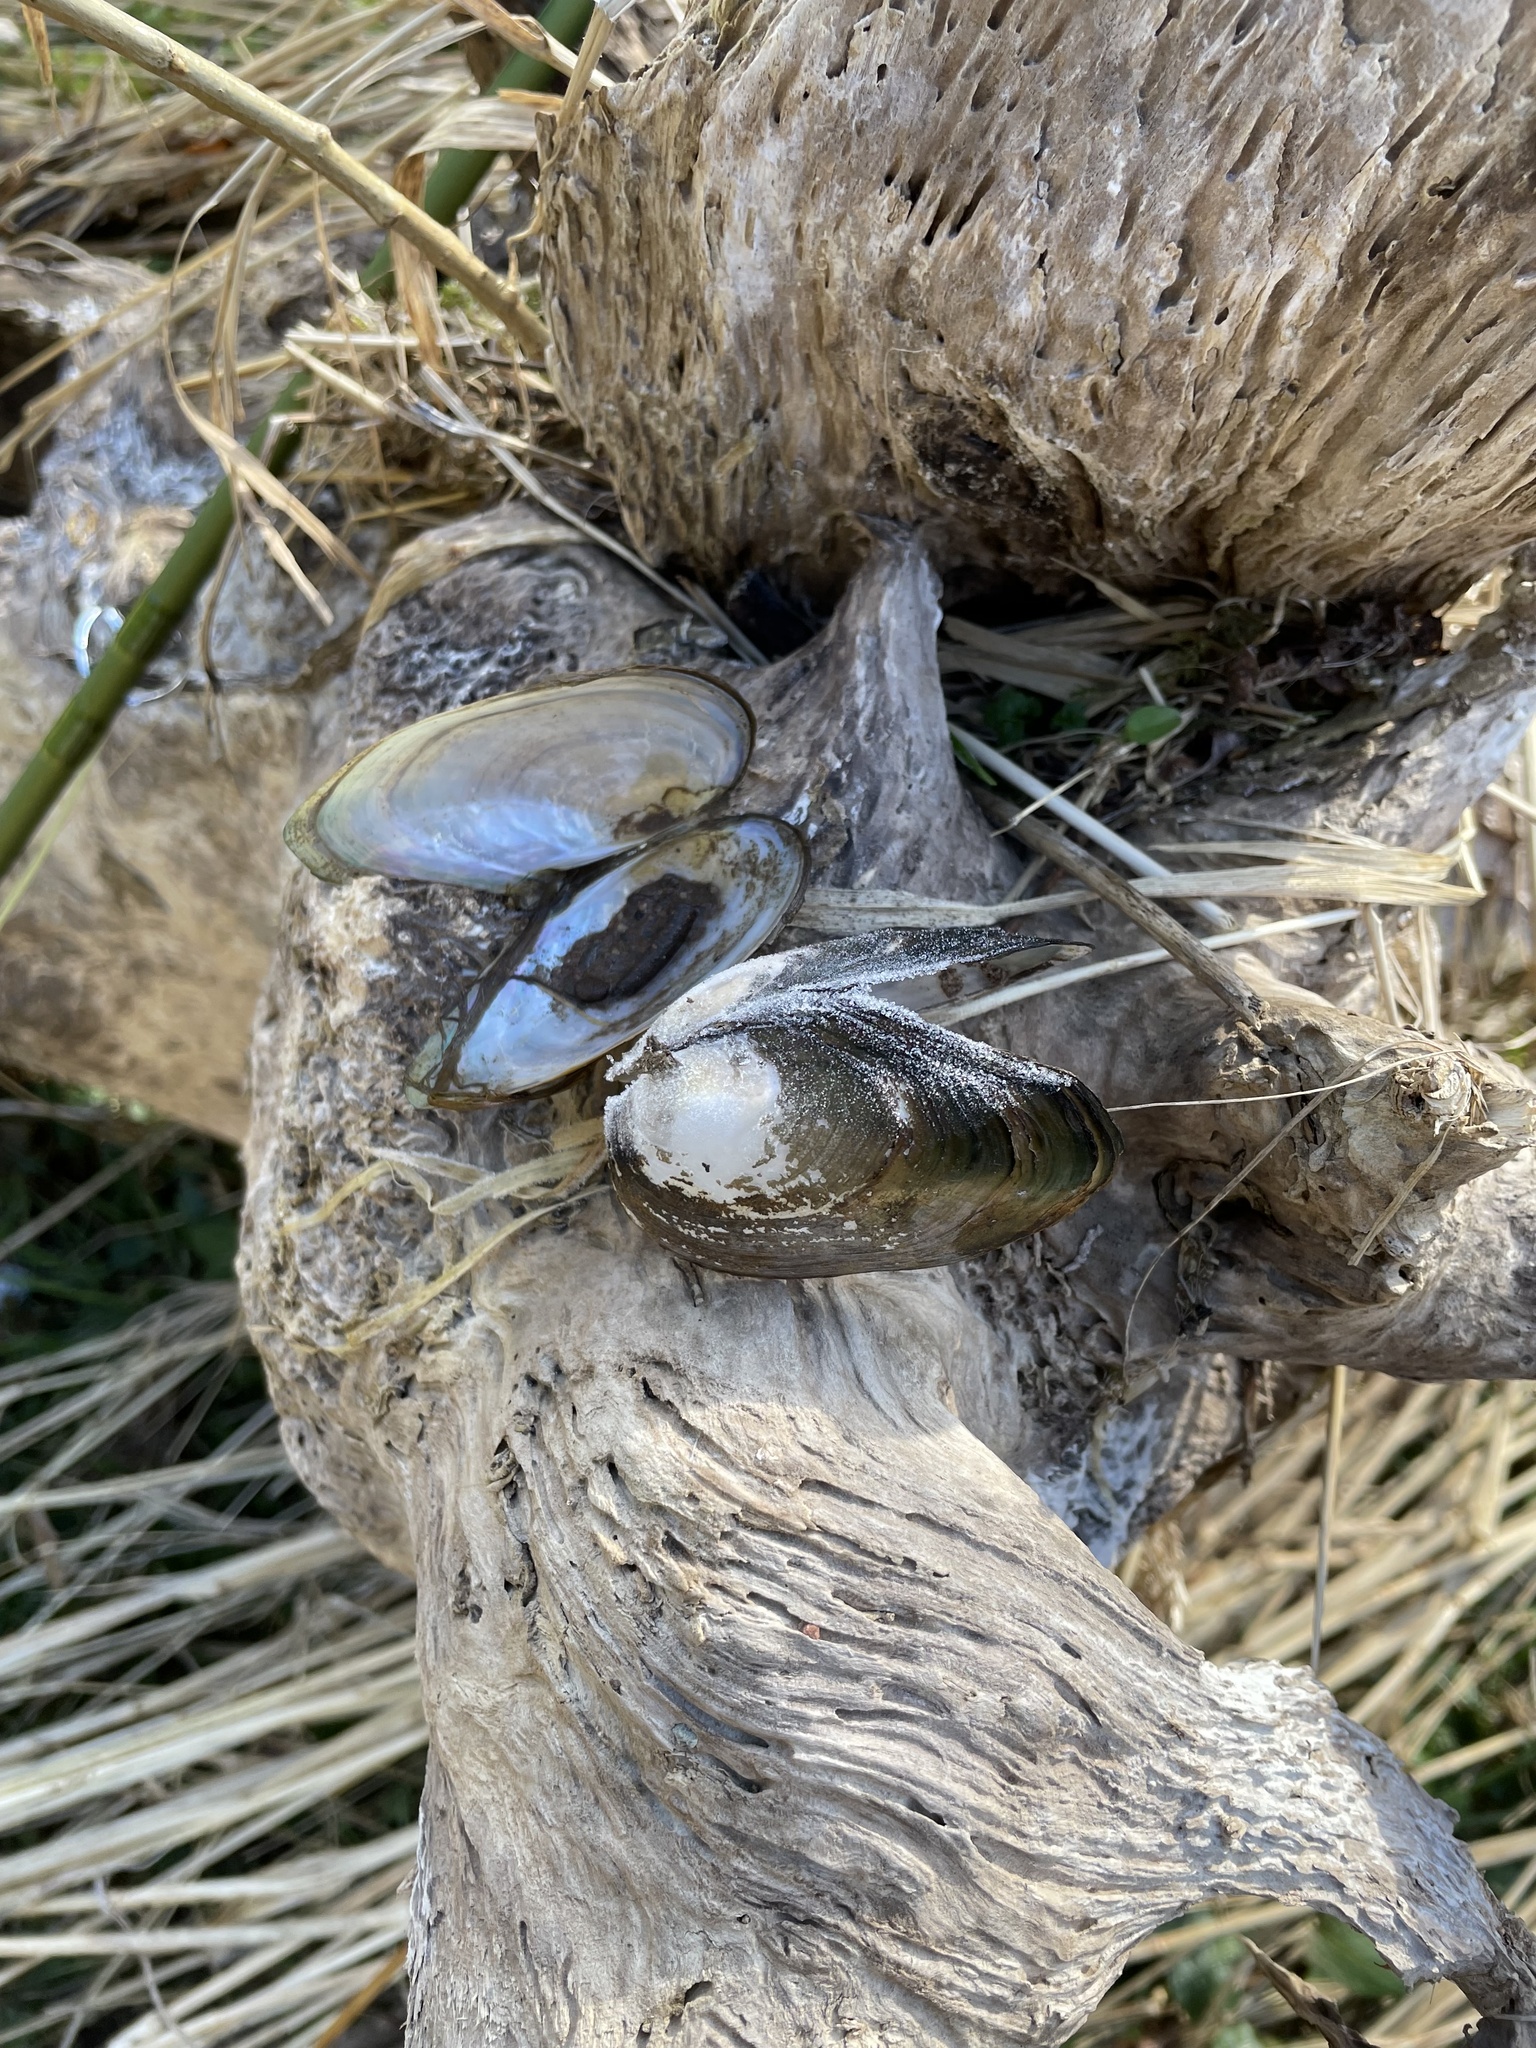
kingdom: Animalia
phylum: Mollusca
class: Bivalvia
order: Unionida
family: Unionidae
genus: Anodonta
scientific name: Anodonta anatina
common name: Duck mussel
